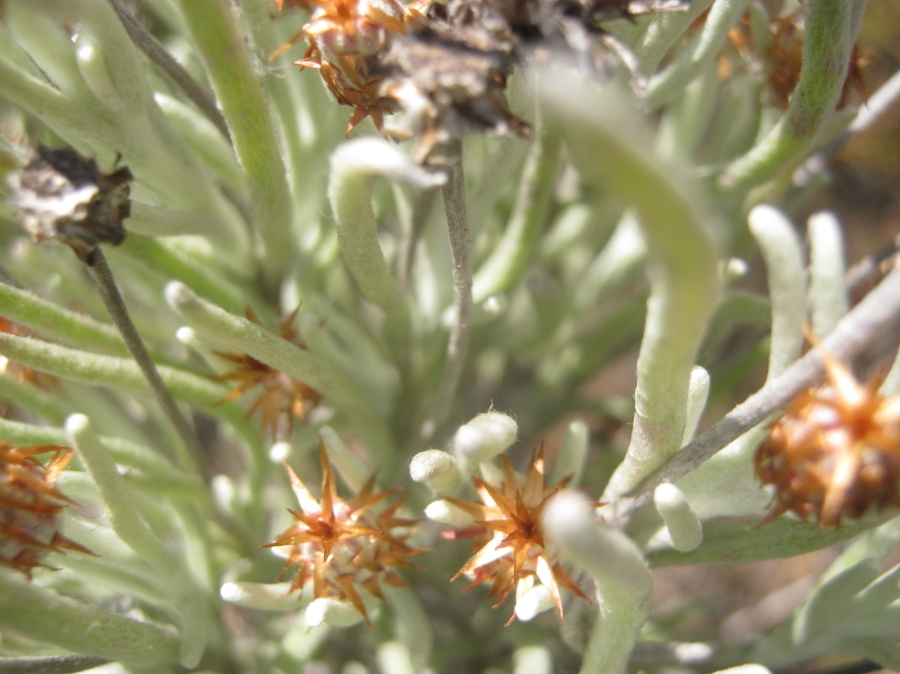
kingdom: Plantae
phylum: Tracheophyta
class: Magnoliopsida
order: Asterales
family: Asteraceae
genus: Syncarpha
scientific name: Syncarpha gnaphaloides
